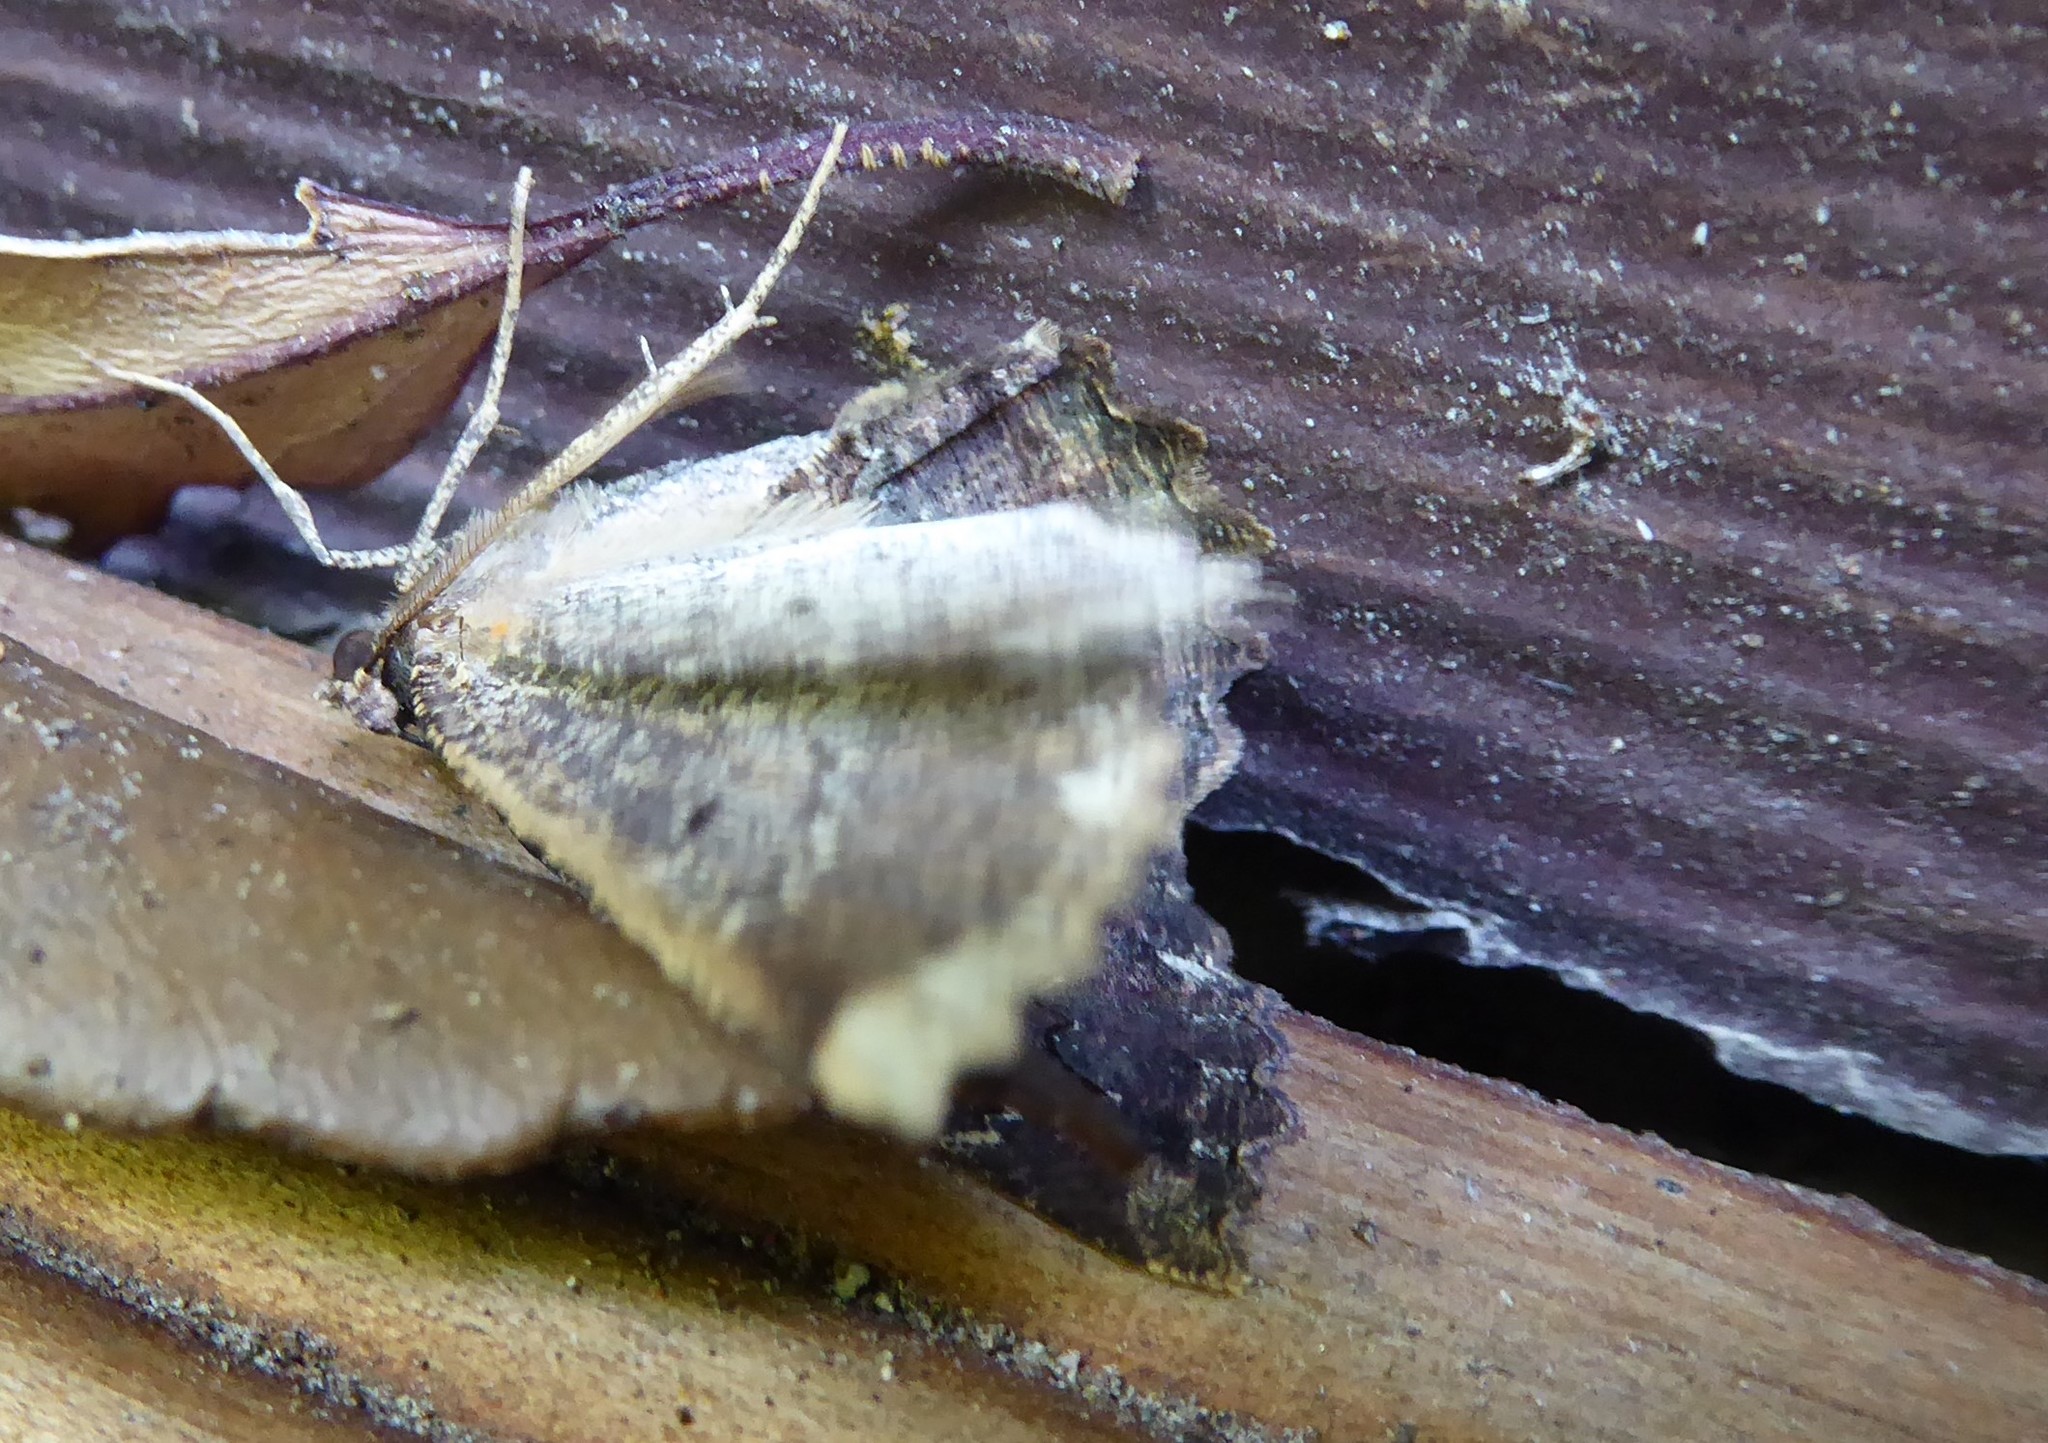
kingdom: Animalia
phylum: Arthropoda
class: Insecta
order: Lepidoptera
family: Geometridae
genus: Gellonia
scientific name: Gellonia pannularia
